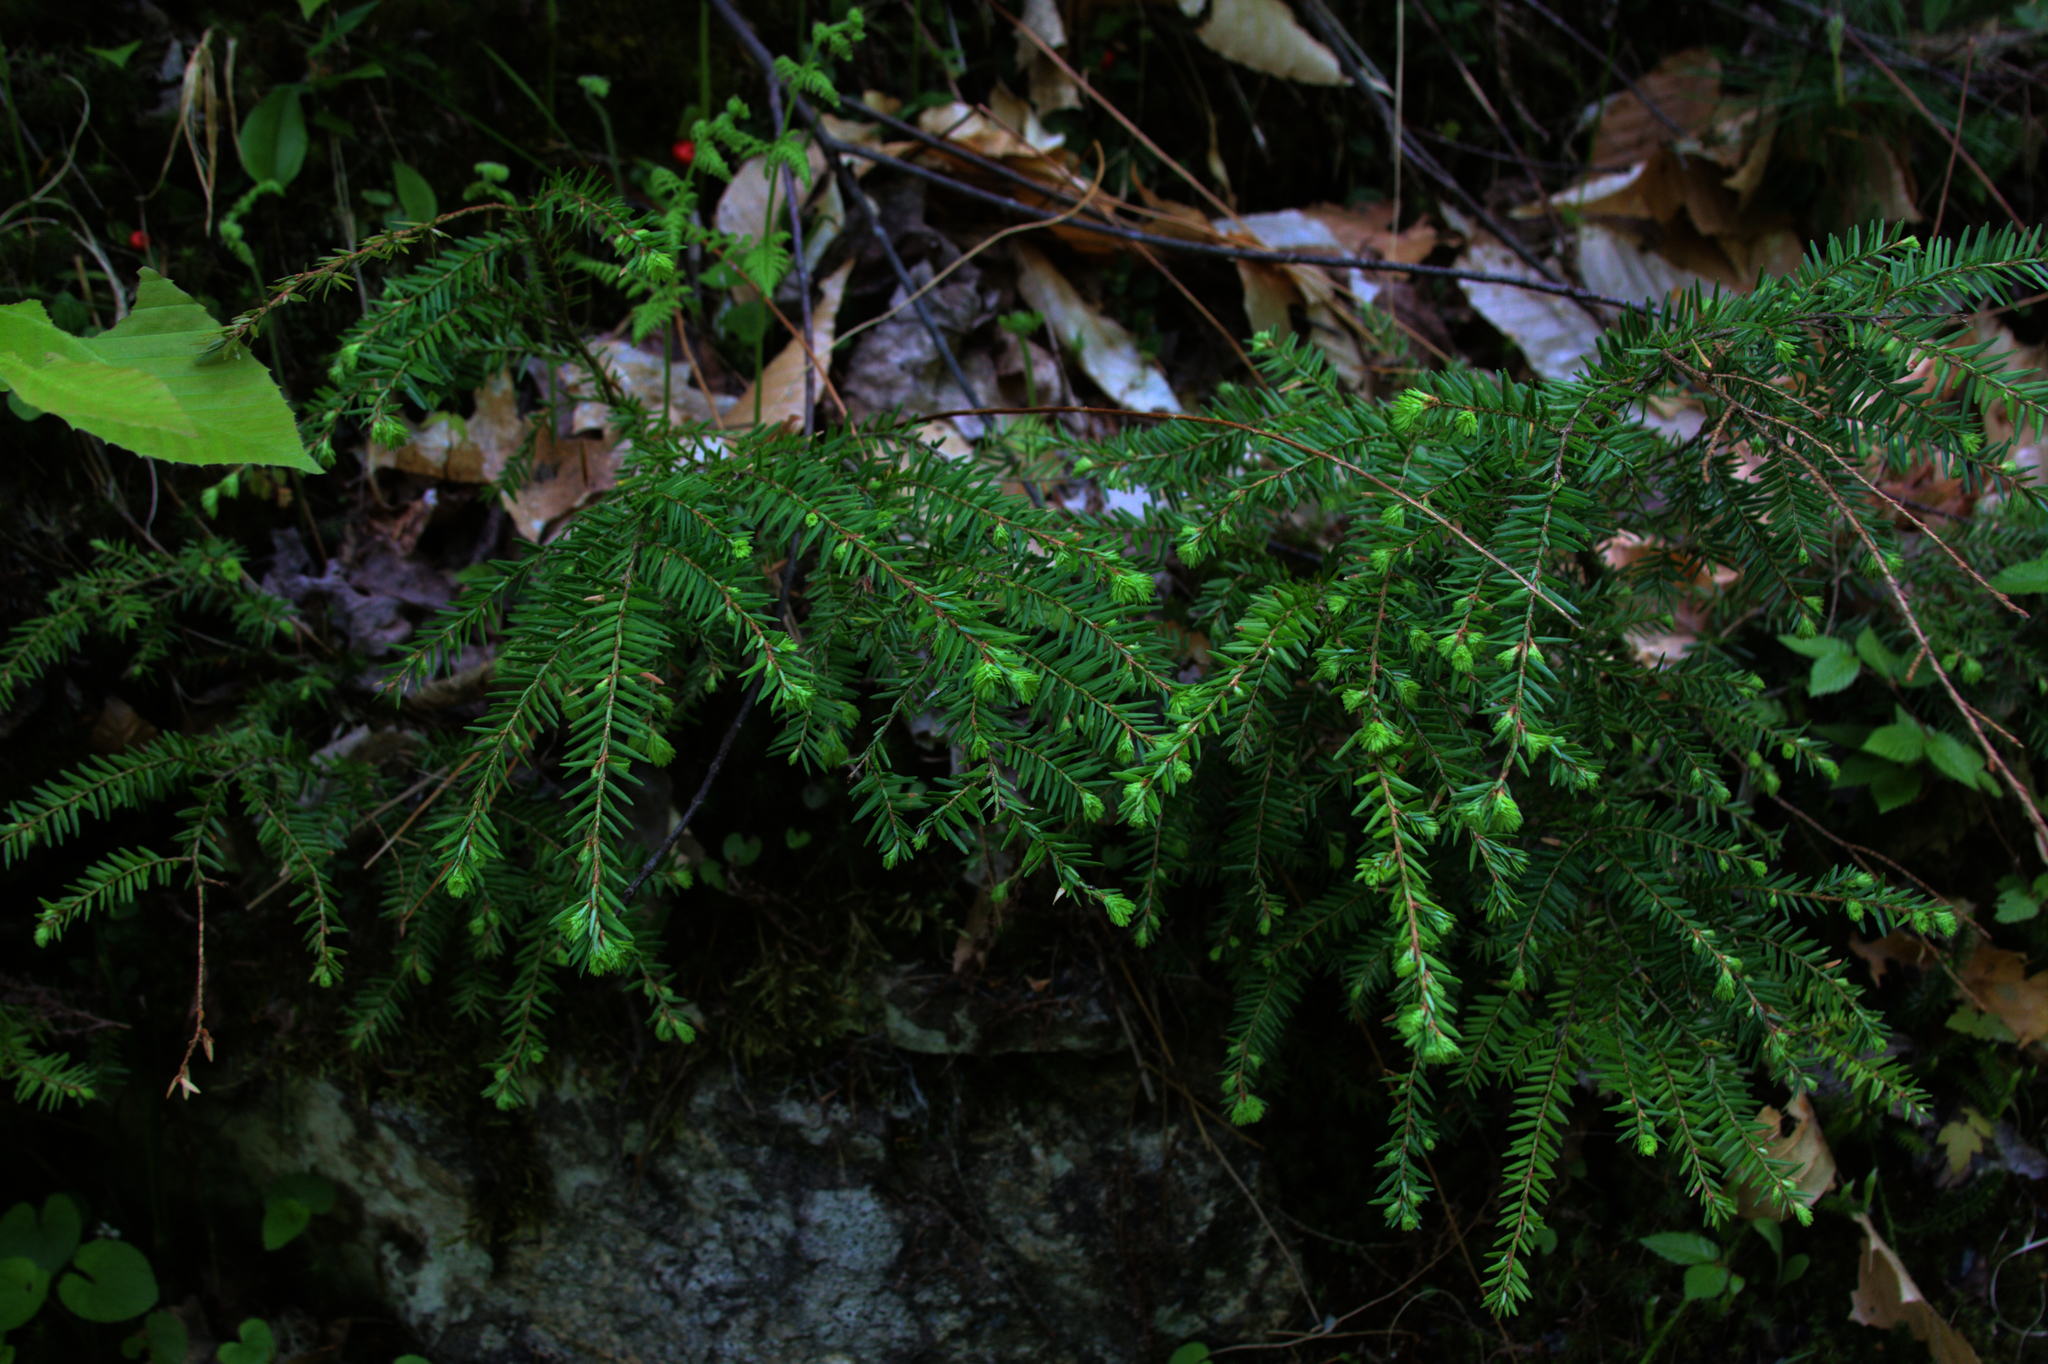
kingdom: Plantae
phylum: Tracheophyta
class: Pinopsida
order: Pinales
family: Pinaceae
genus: Tsuga
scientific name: Tsuga canadensis
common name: Eastern hemlock
